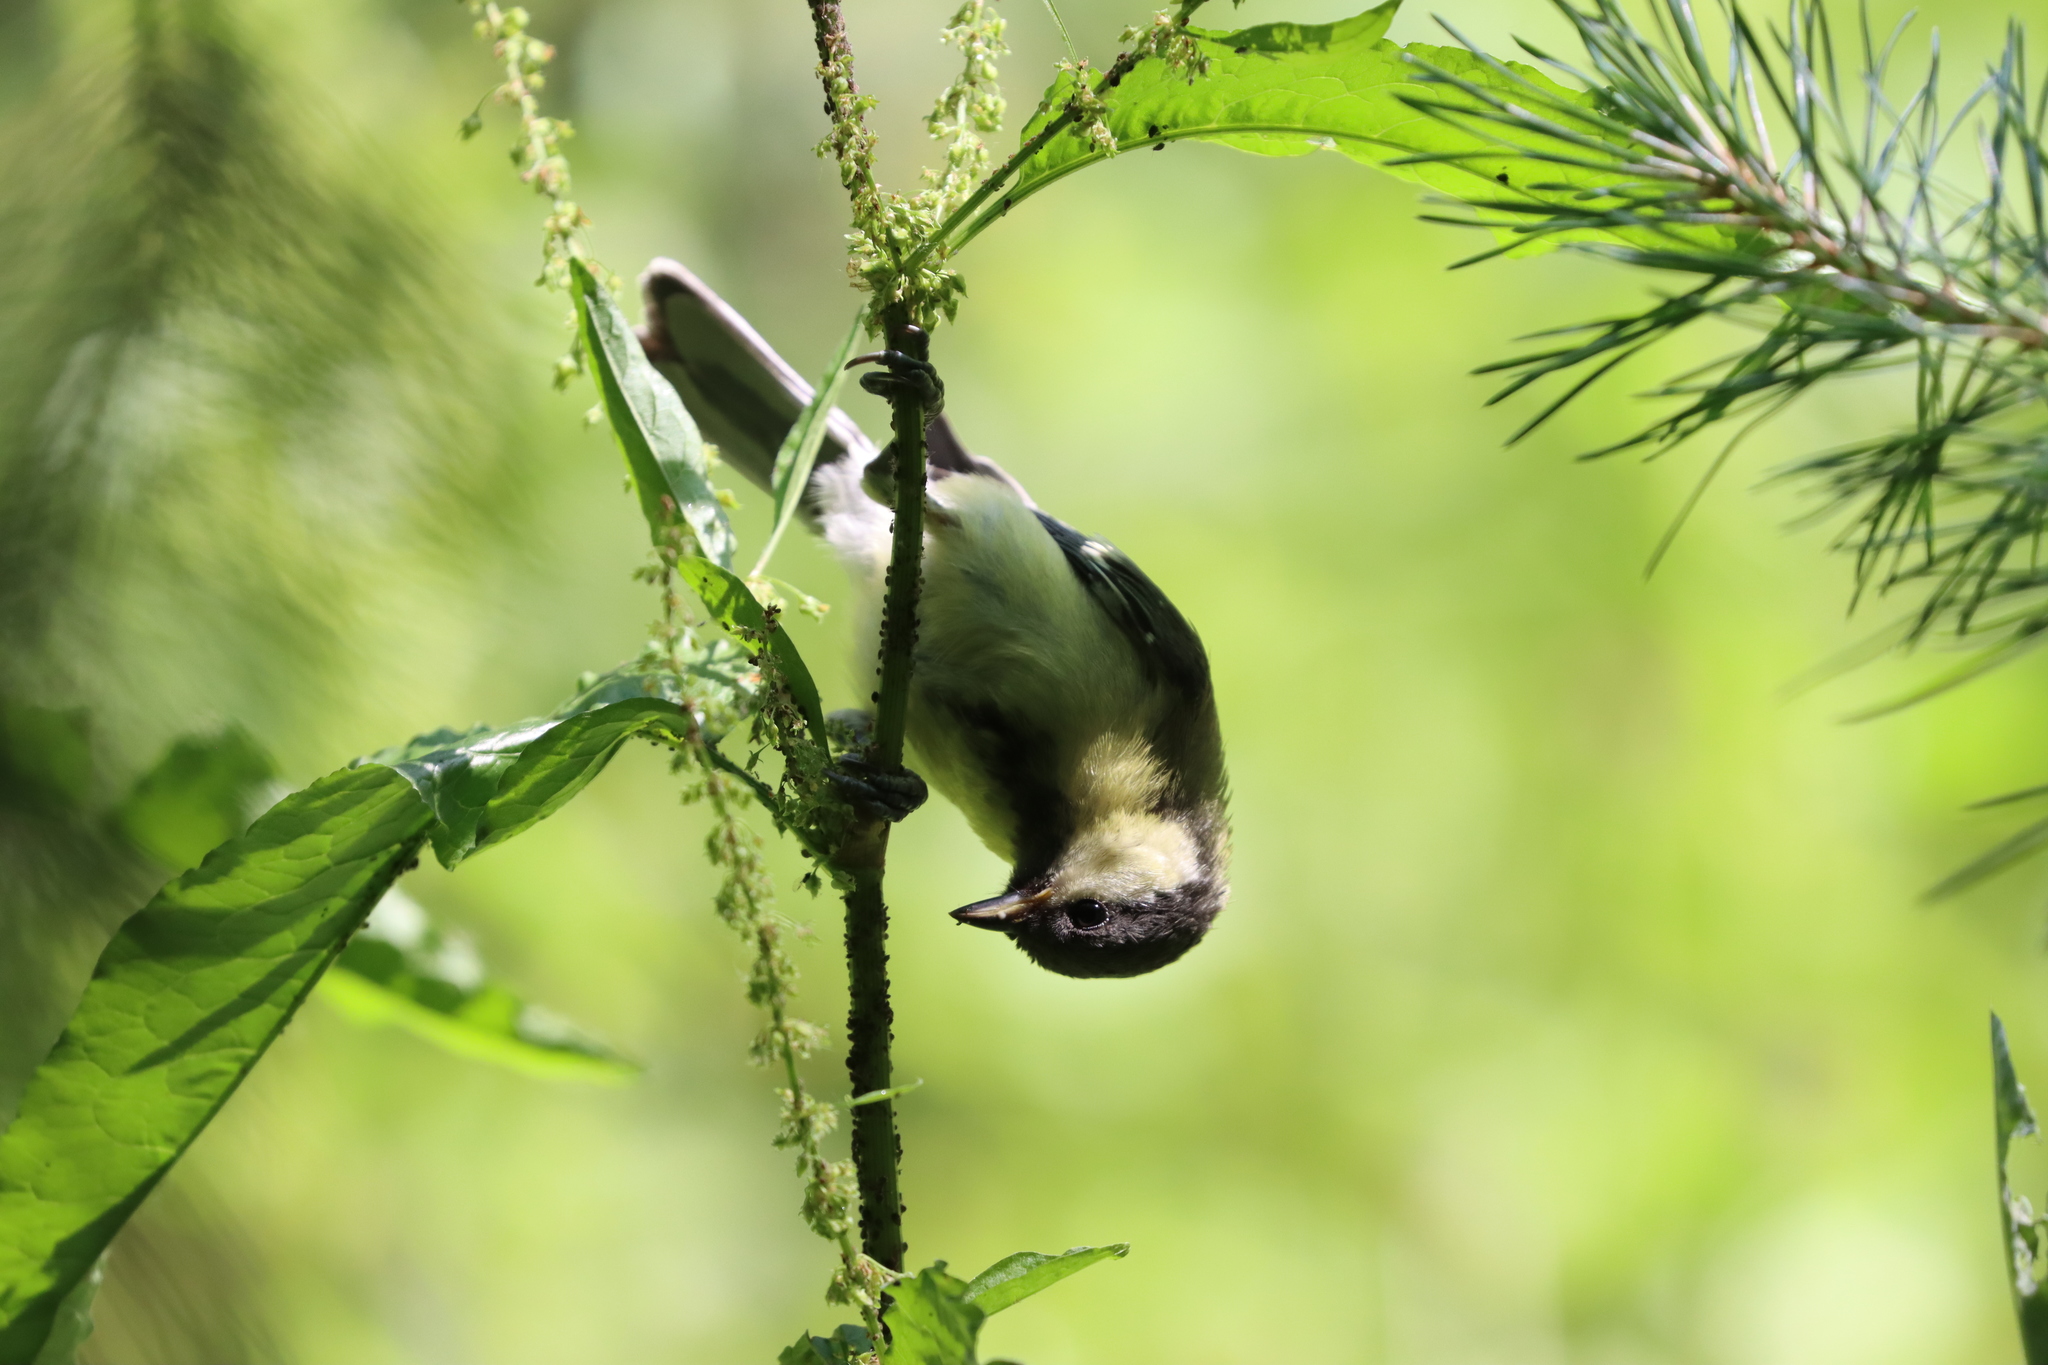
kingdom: Animalia
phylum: Chordata
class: Aves
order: Passeriformes
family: Paridae
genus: Parus
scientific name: Parus major
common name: Great tit
